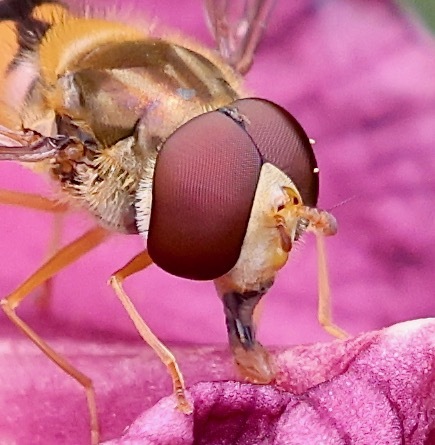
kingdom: Animalia
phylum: Arthropoda
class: Insecta
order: Diptera
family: Syrphidae
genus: Episyrphus
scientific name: Episyrphus balteatus
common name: Marmalade hoverfly
